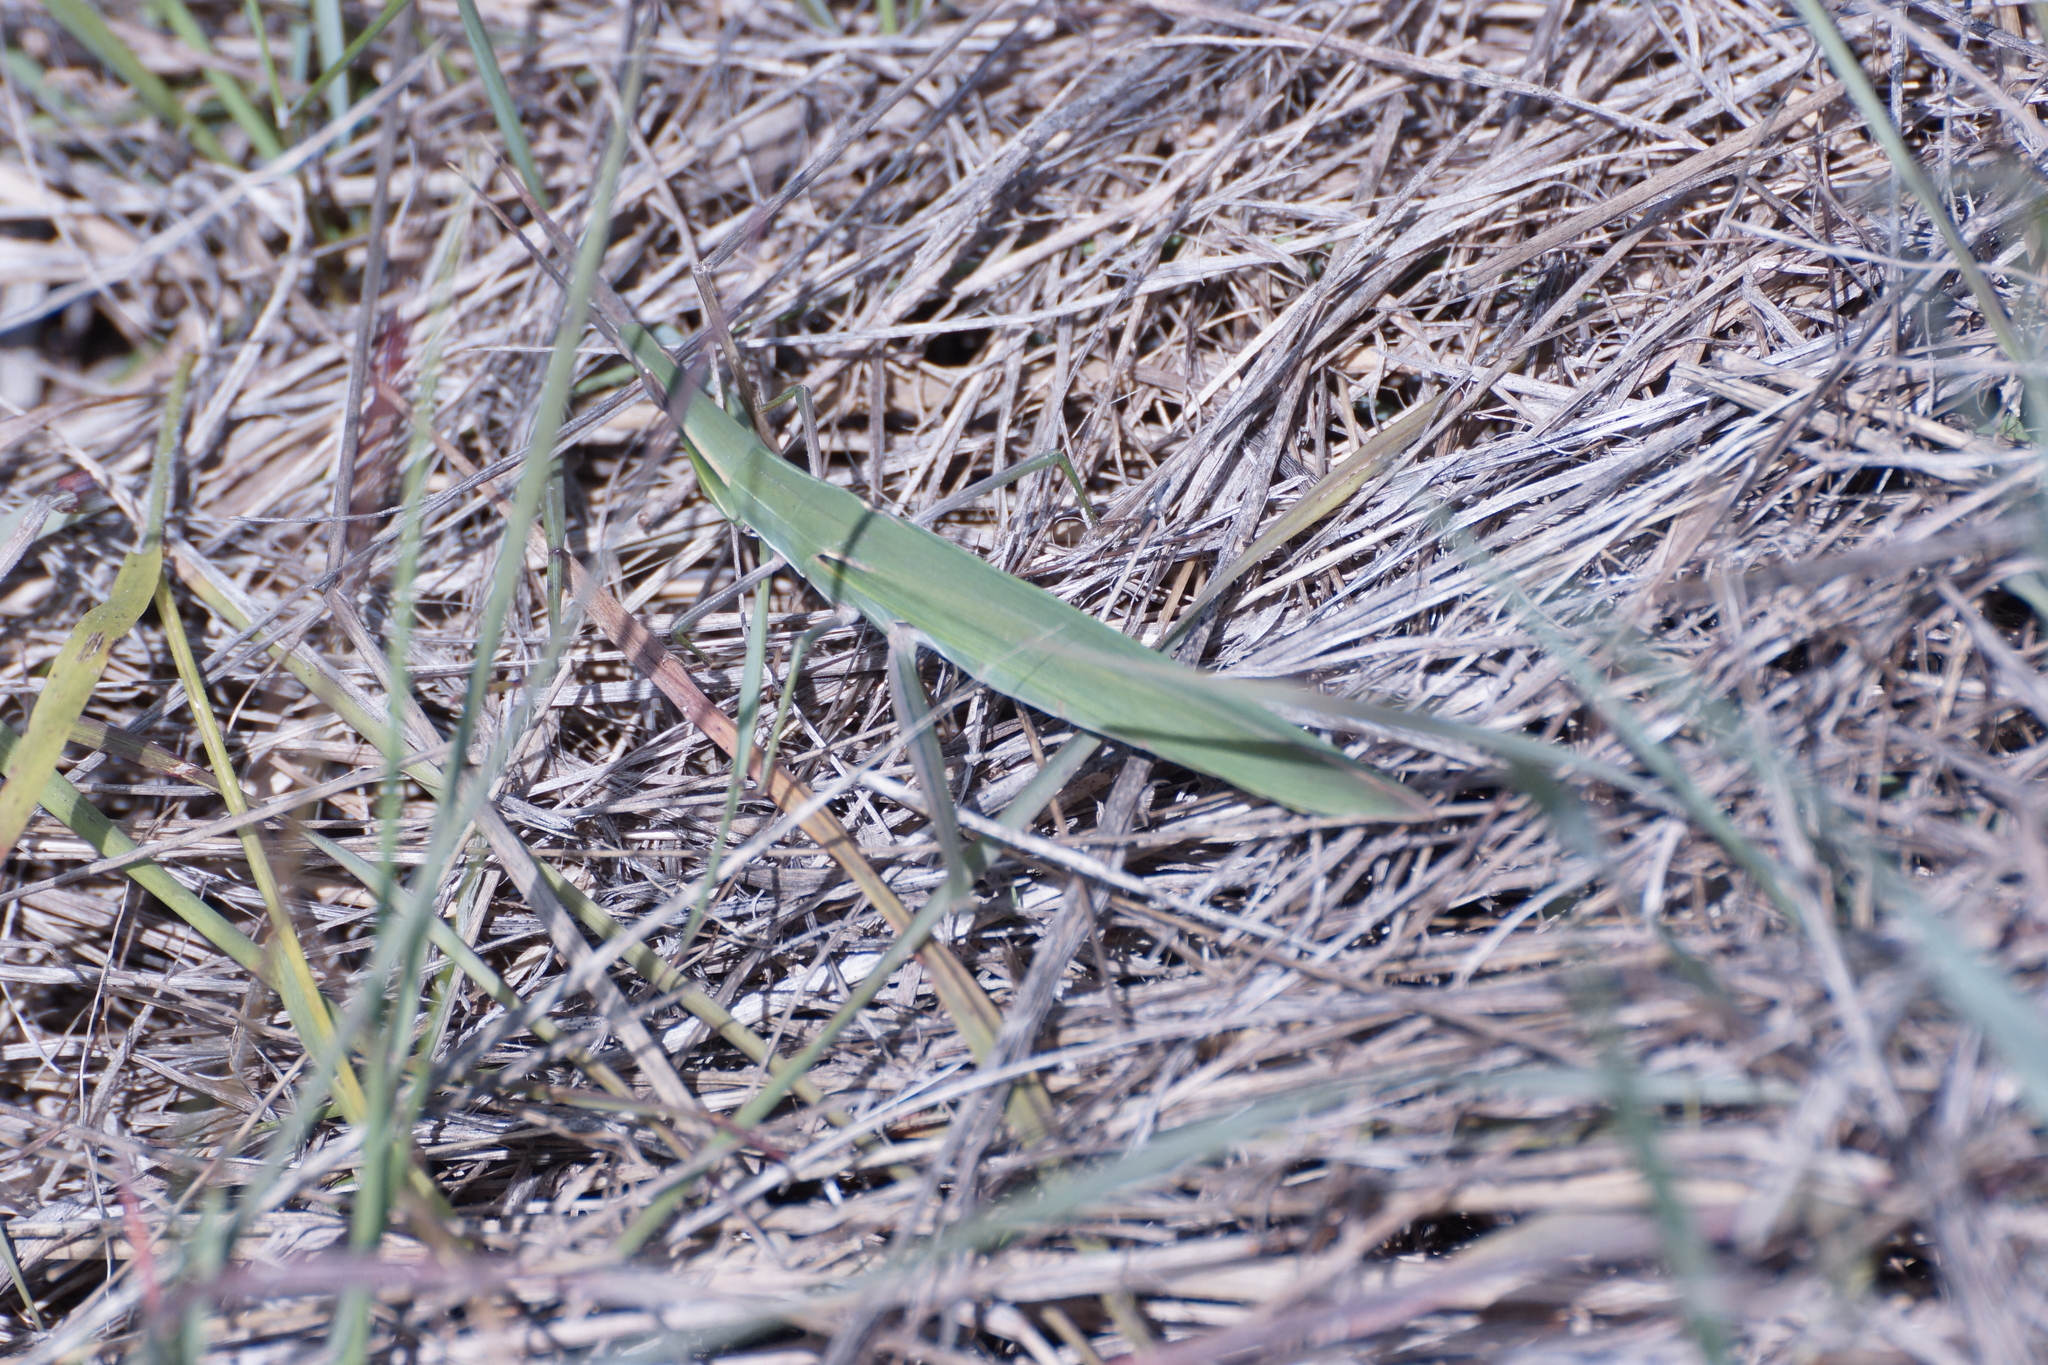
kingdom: Animalia
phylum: Arthropoda
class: Insecta
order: Orthoptera
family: Acrididae
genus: Acrida
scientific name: Acrida conica
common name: Giant green slantface
